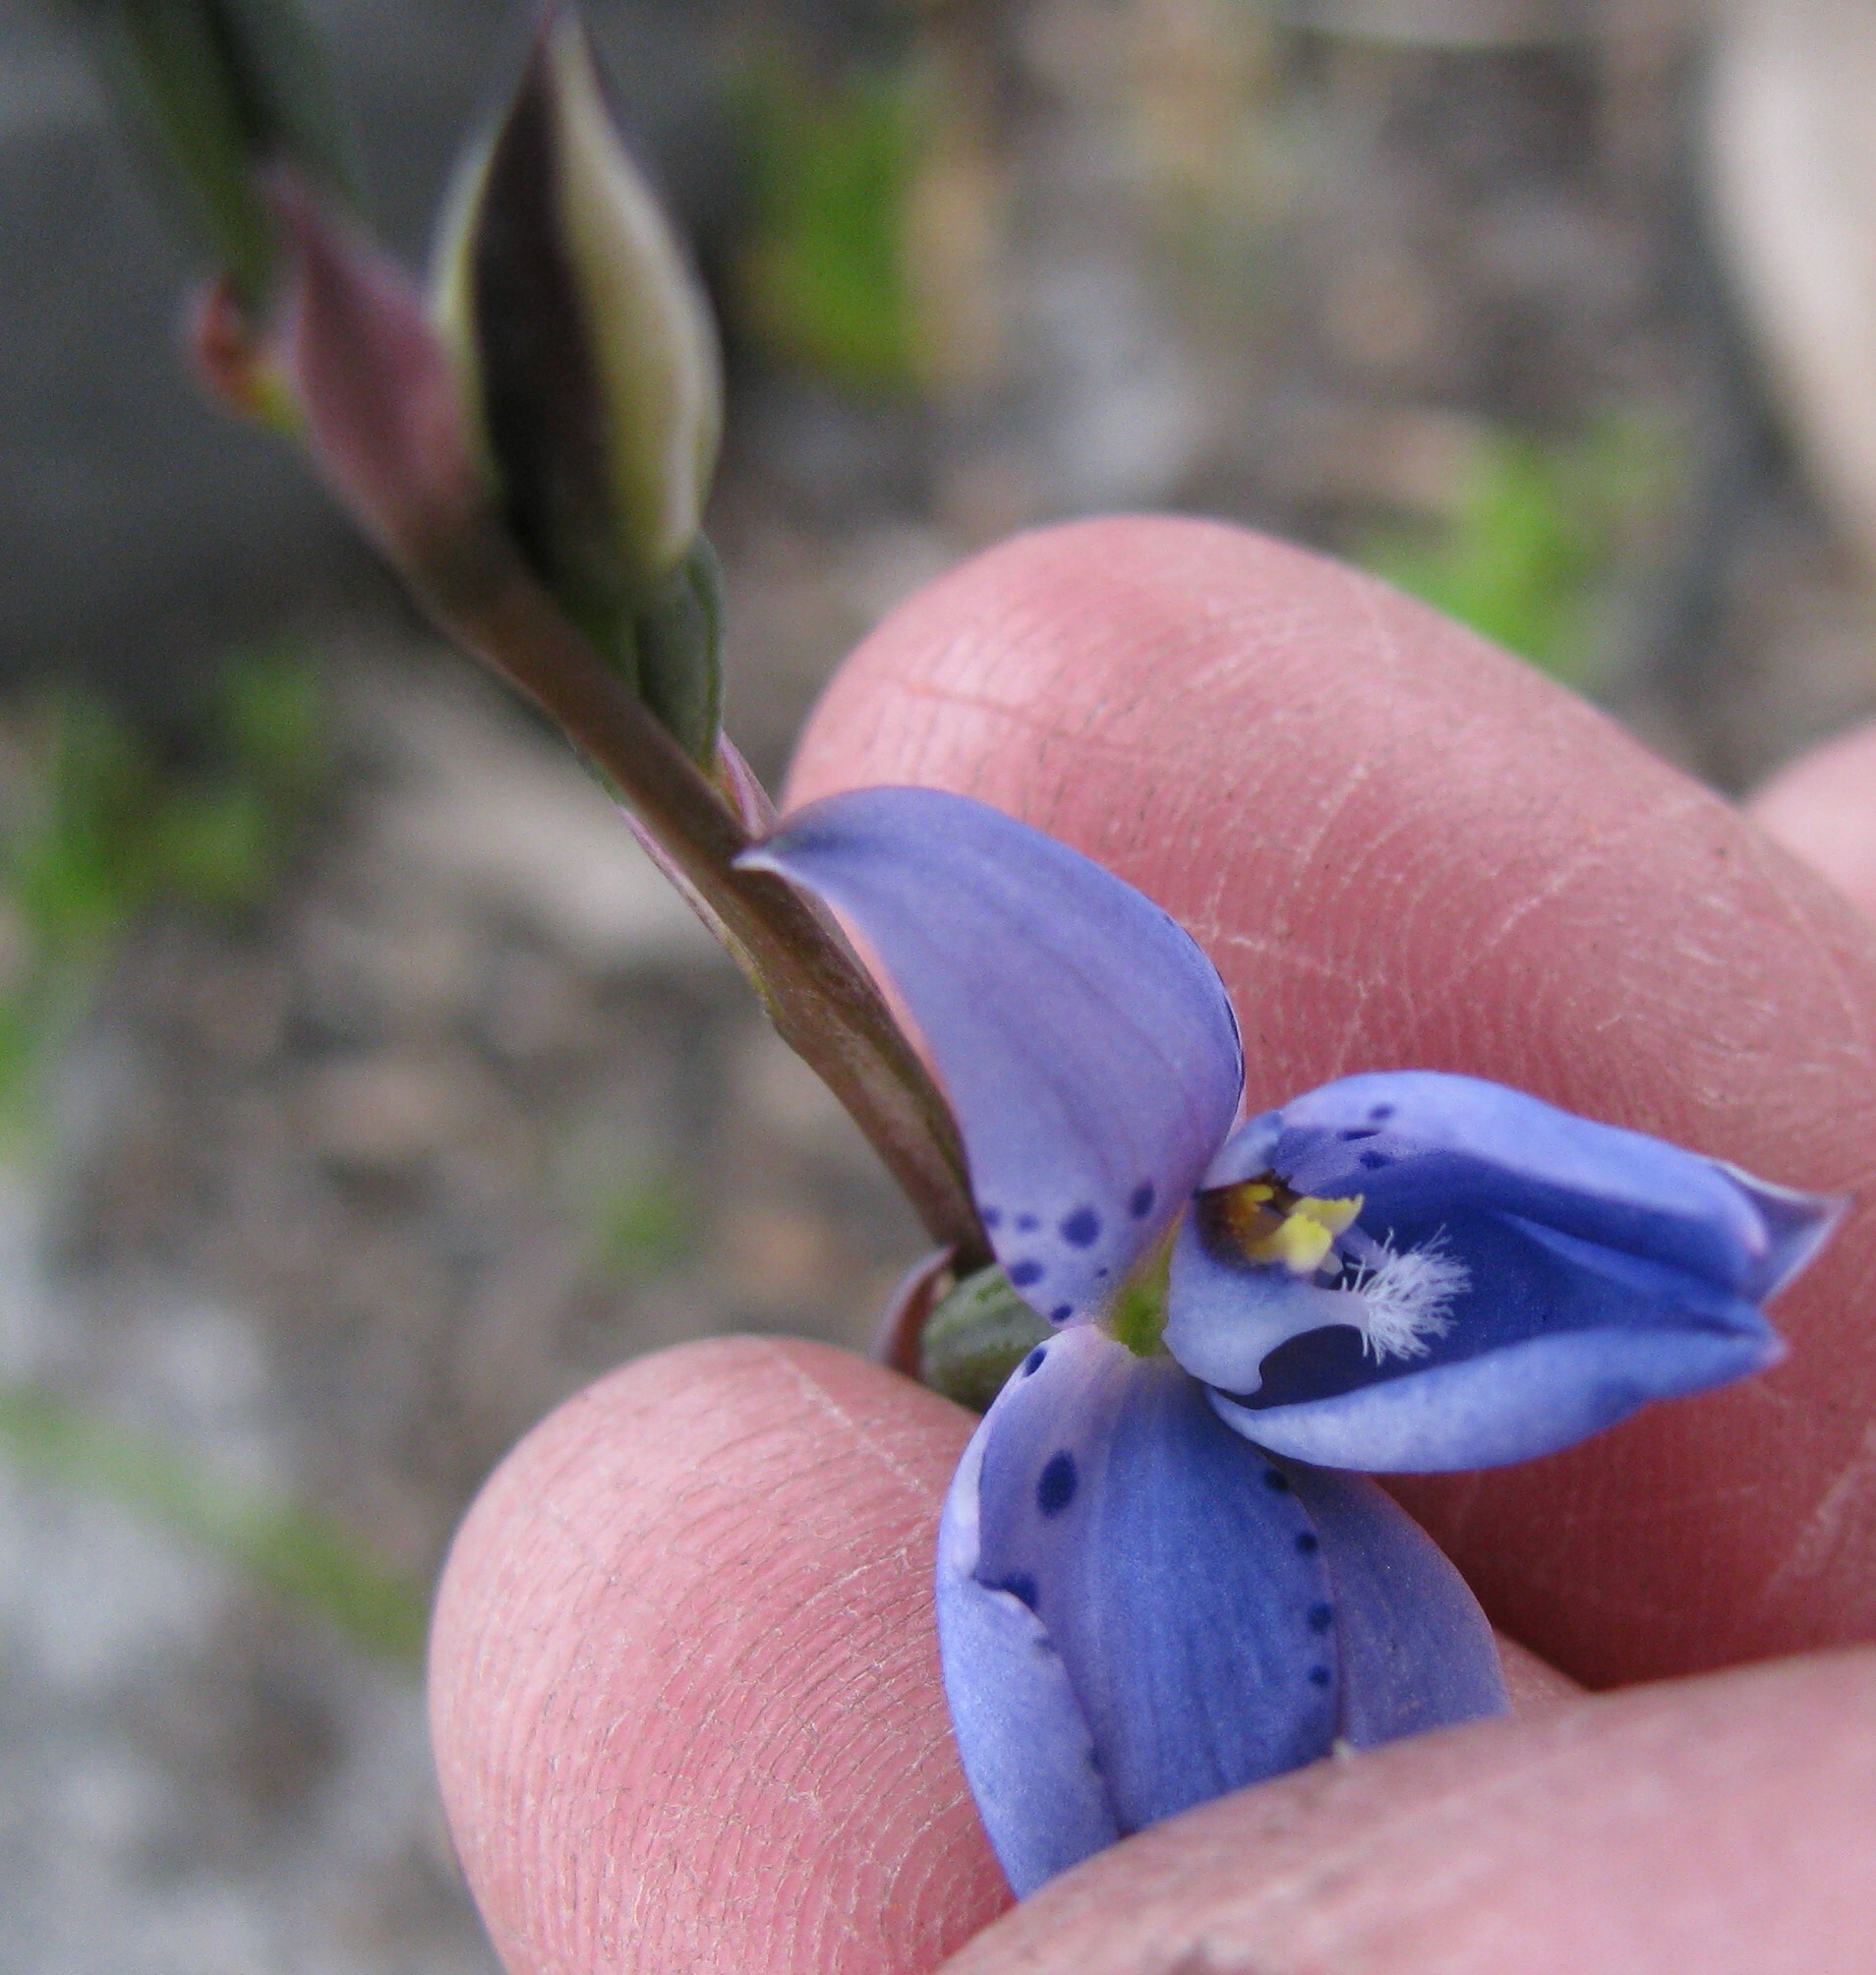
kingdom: Plantae
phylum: Tracheophyta
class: Liliopsida
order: Asparagales
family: Orchidaceae
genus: Thelymitra
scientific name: Thelymitra juncifolia
